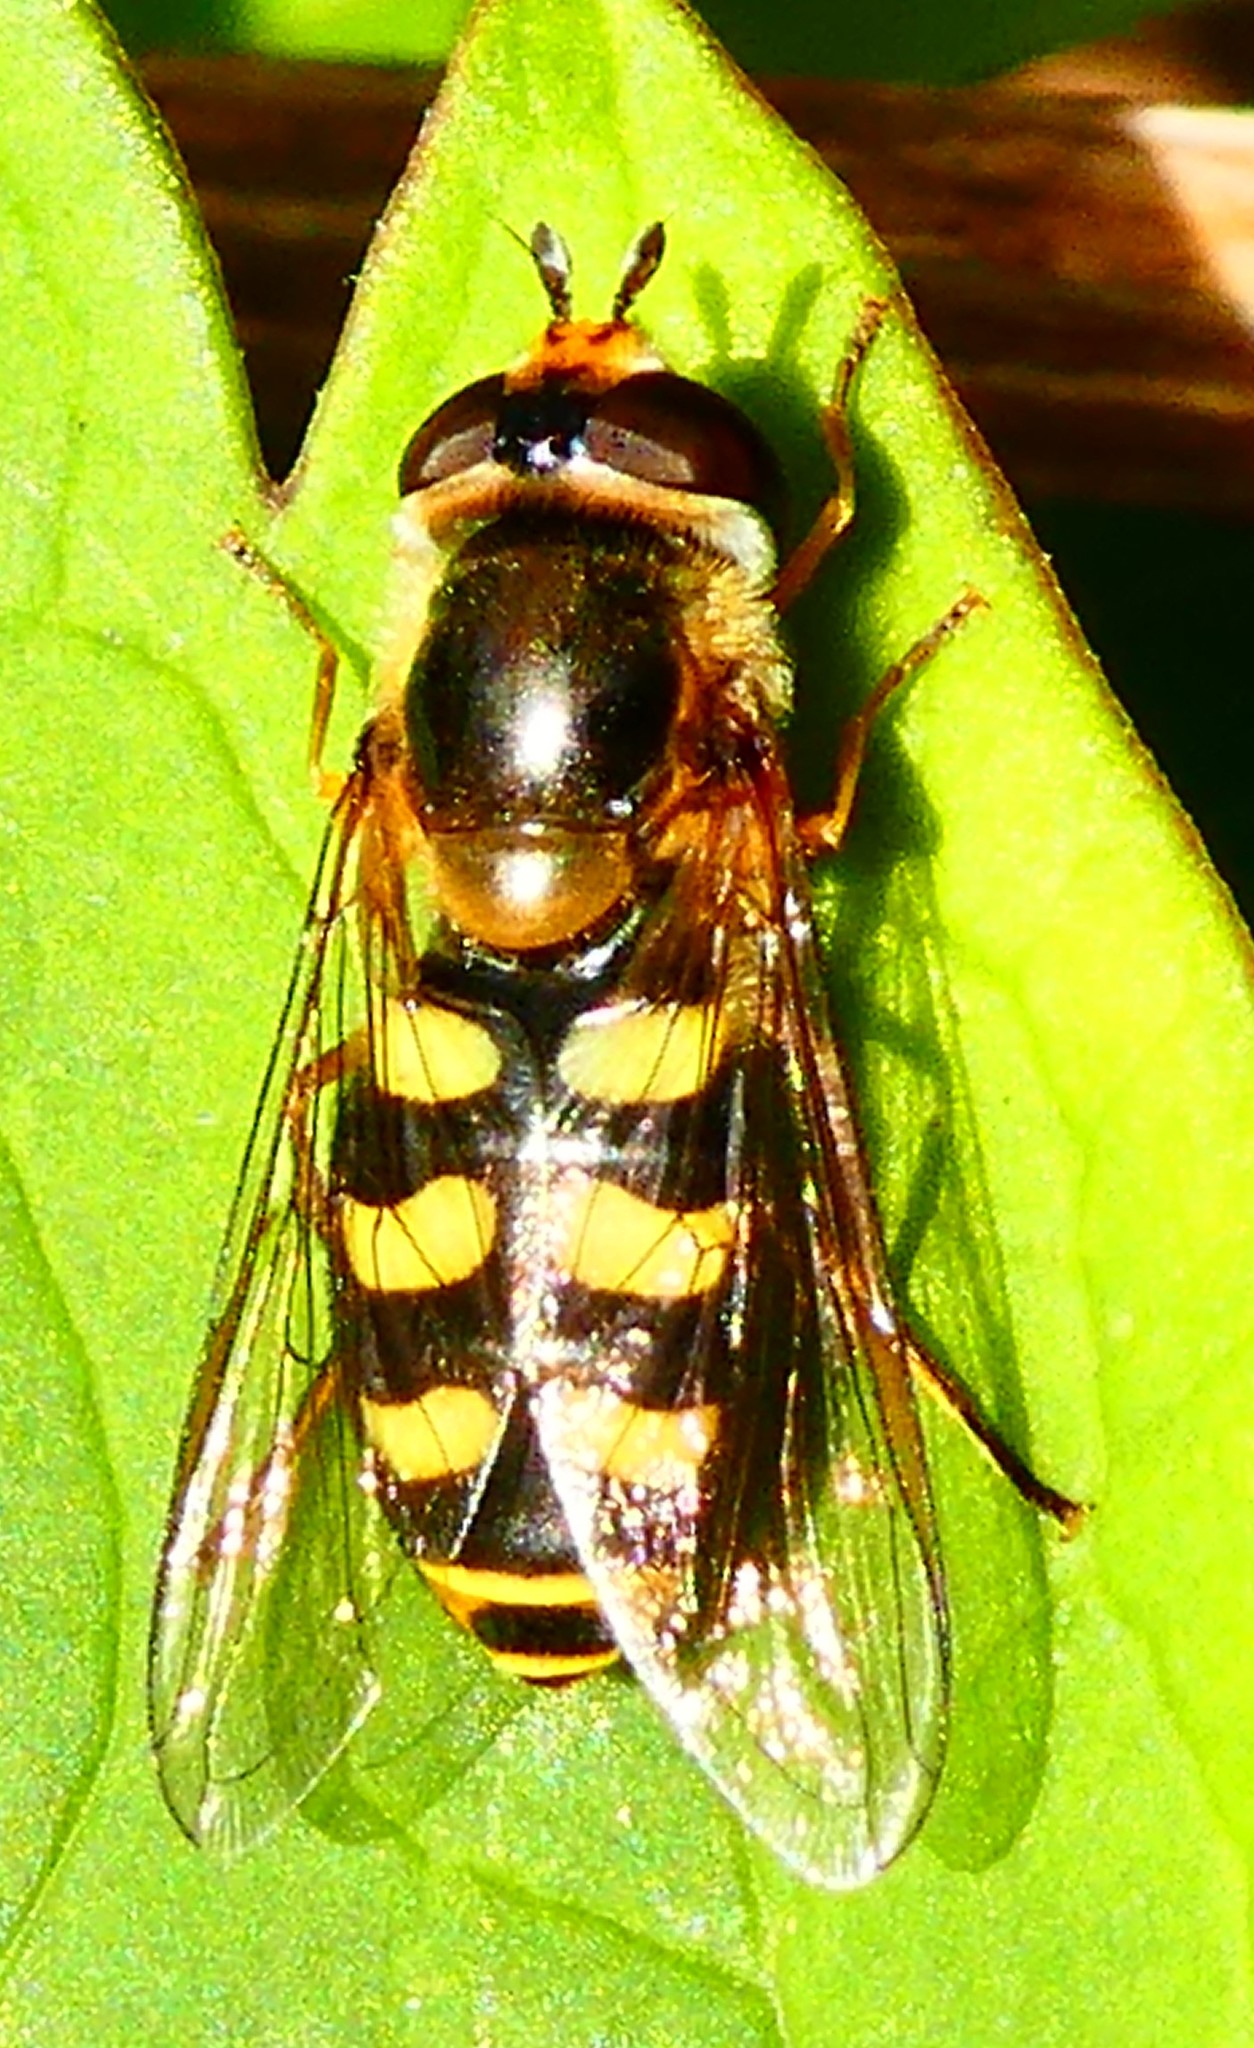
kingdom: Animalia
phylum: Arthropoda
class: Insecta
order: Diptera
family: Syrphidae
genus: Eupeodes
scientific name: Eupeodes luniger
